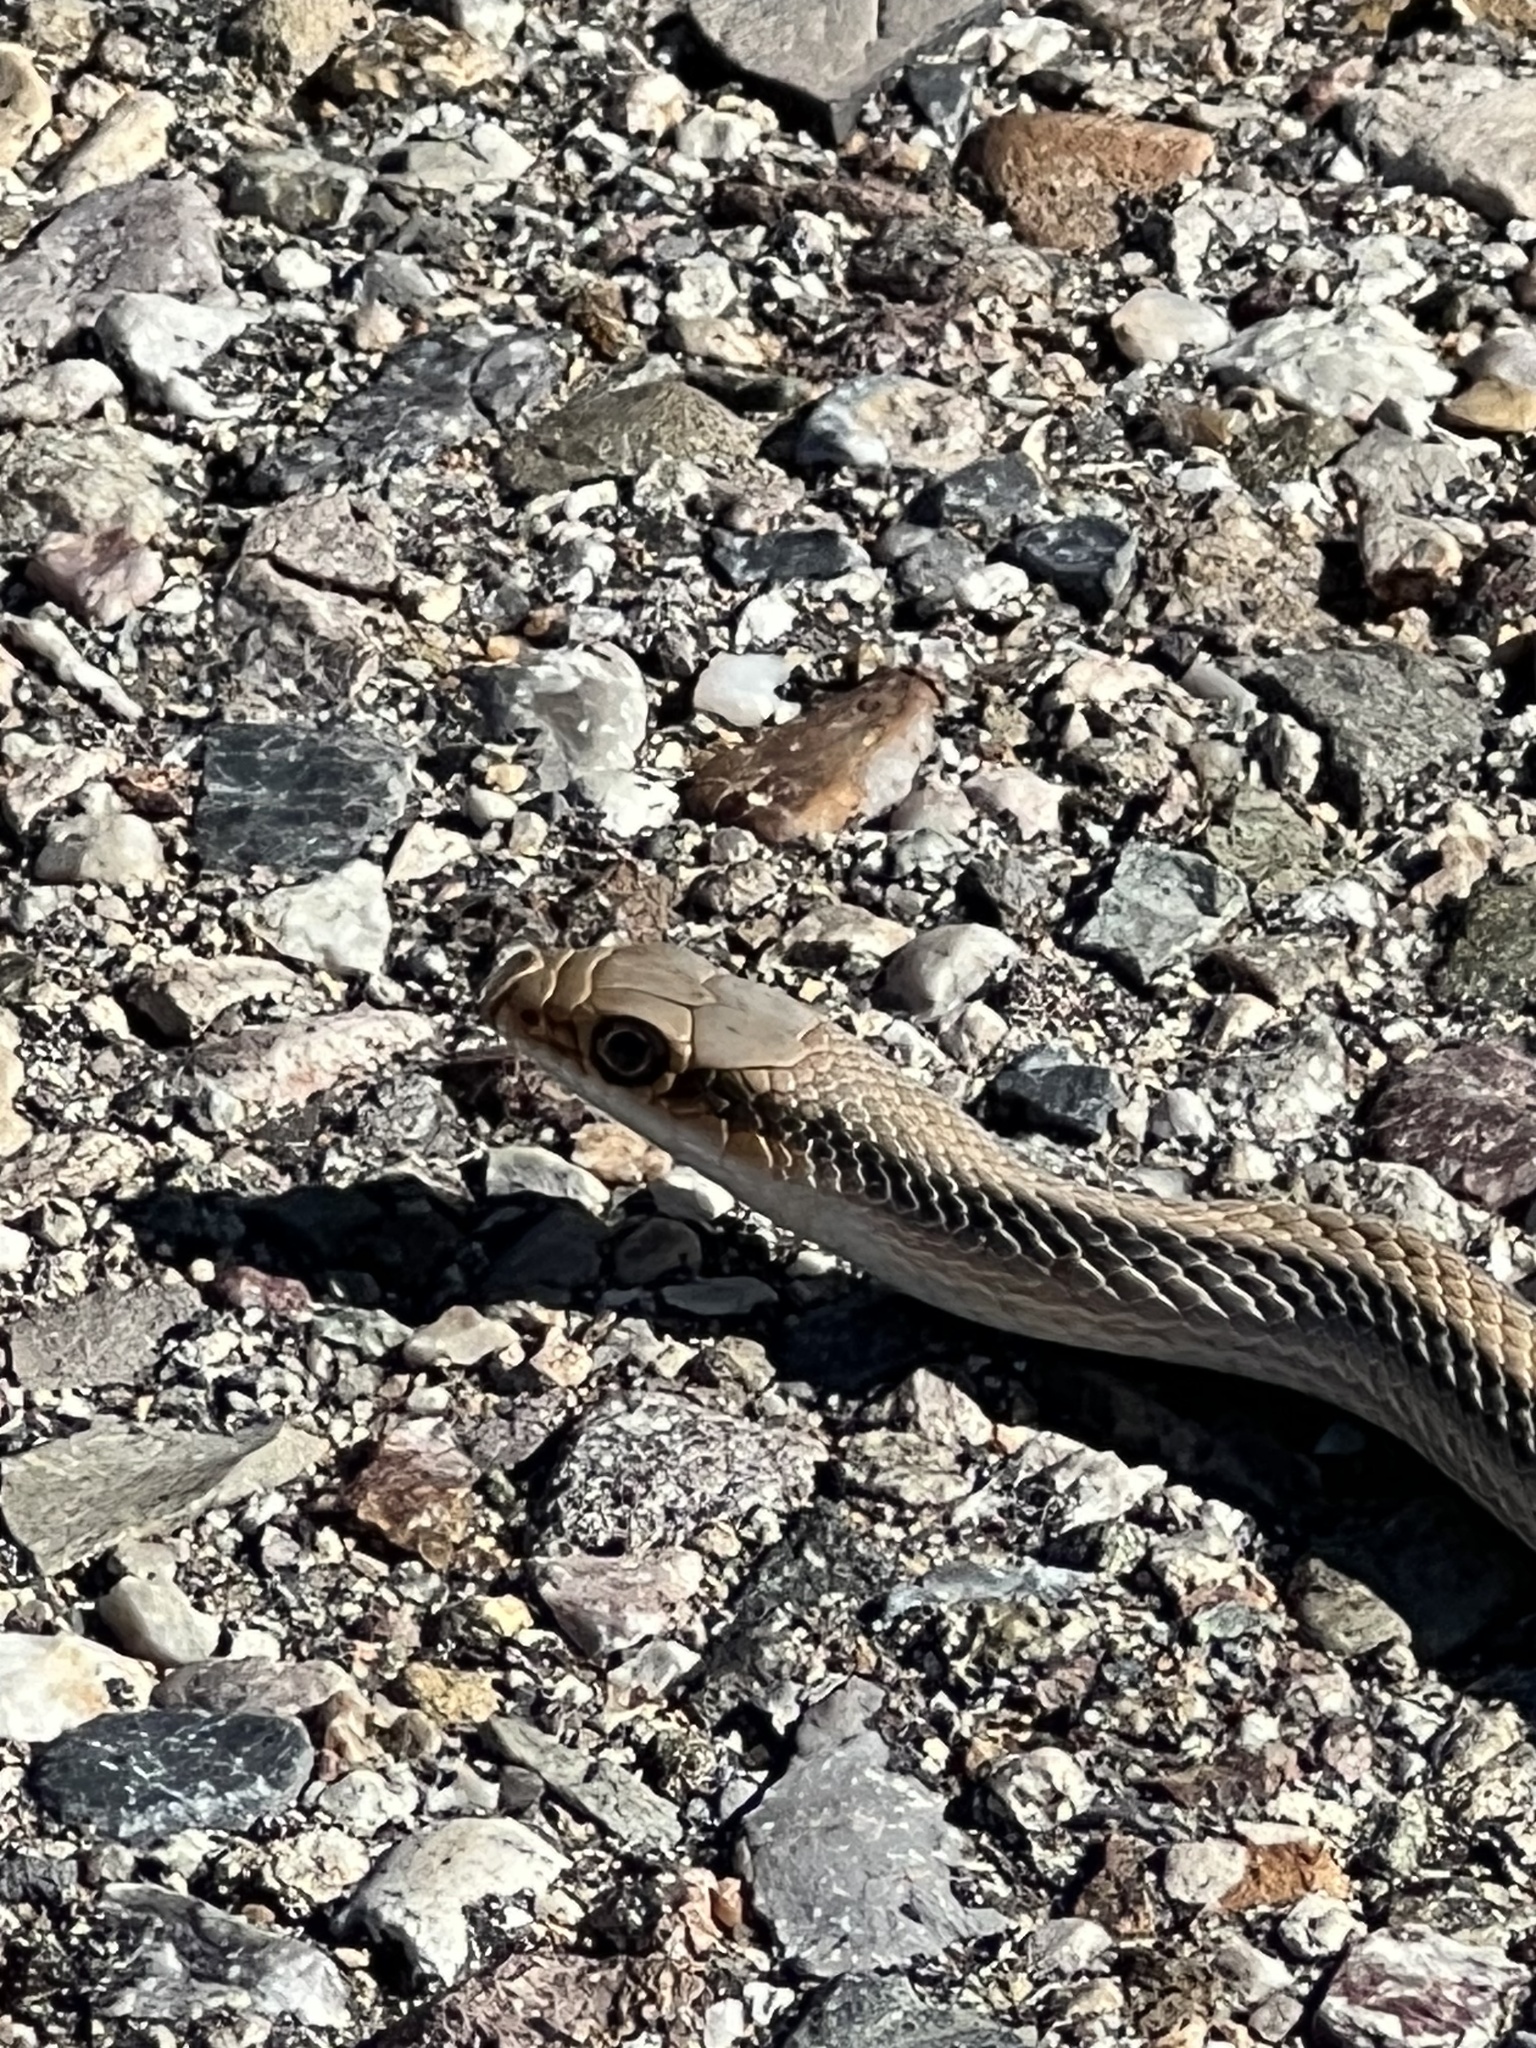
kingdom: Animalia
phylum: Chordata
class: Squamata
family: Colubridae
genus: Salvadora
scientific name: Salvadora deserticola
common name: Big bend patchnose snake
